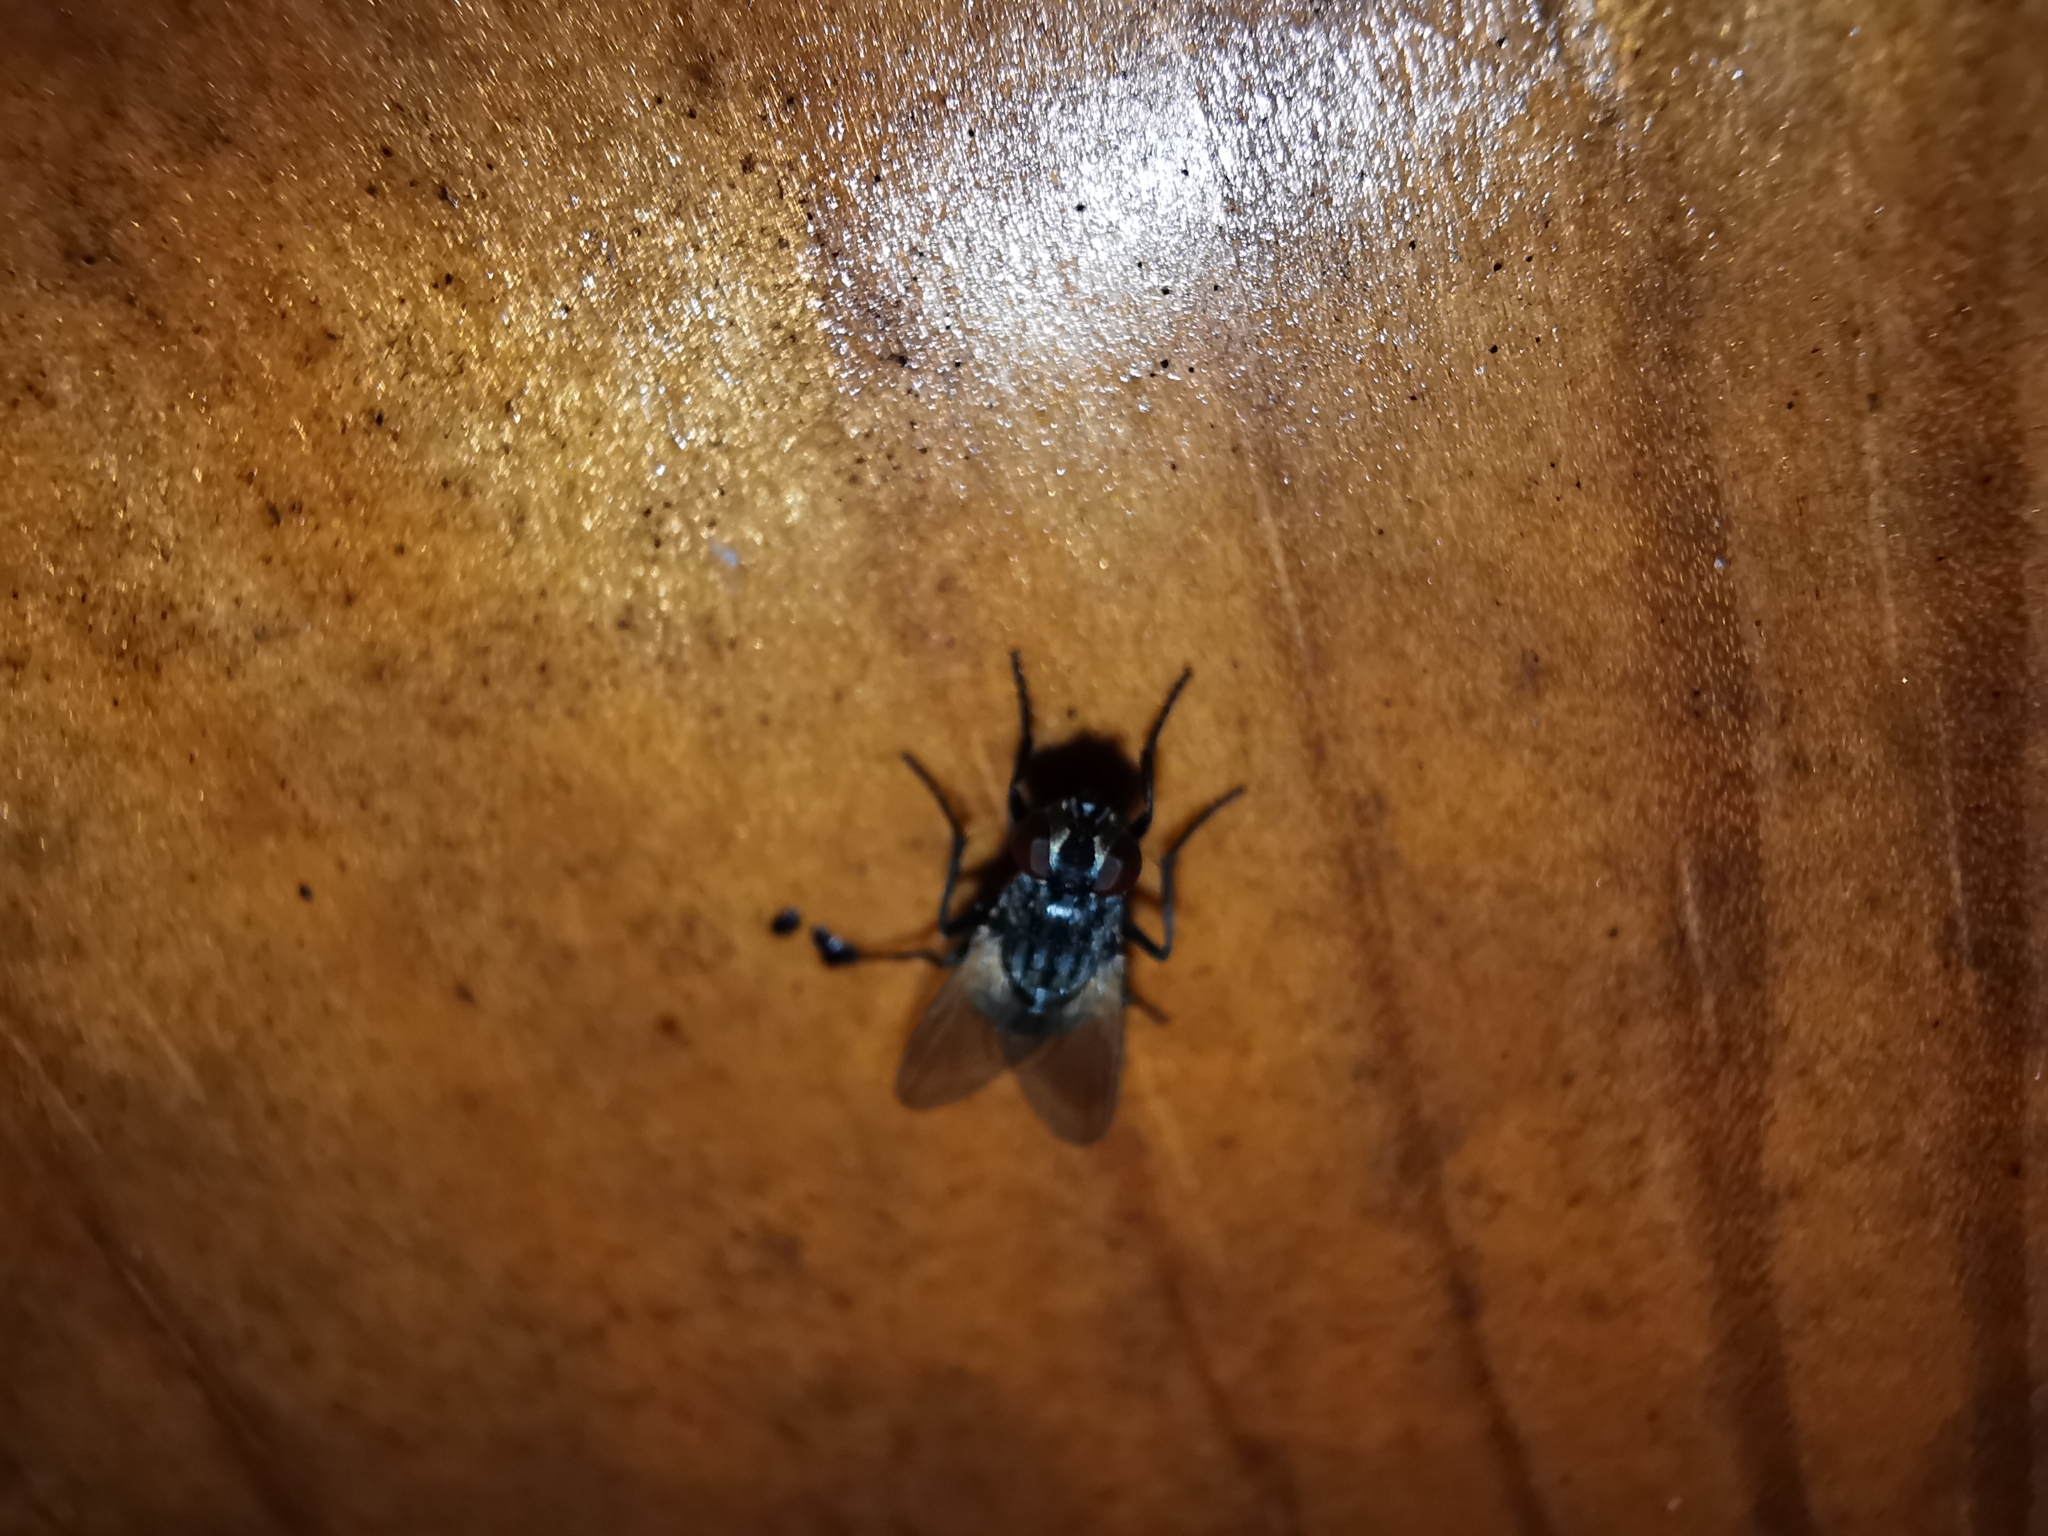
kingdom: Animalia
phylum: Arthropoda
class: Insecta
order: Diptera
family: Muscidae
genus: Musca
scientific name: Musca
